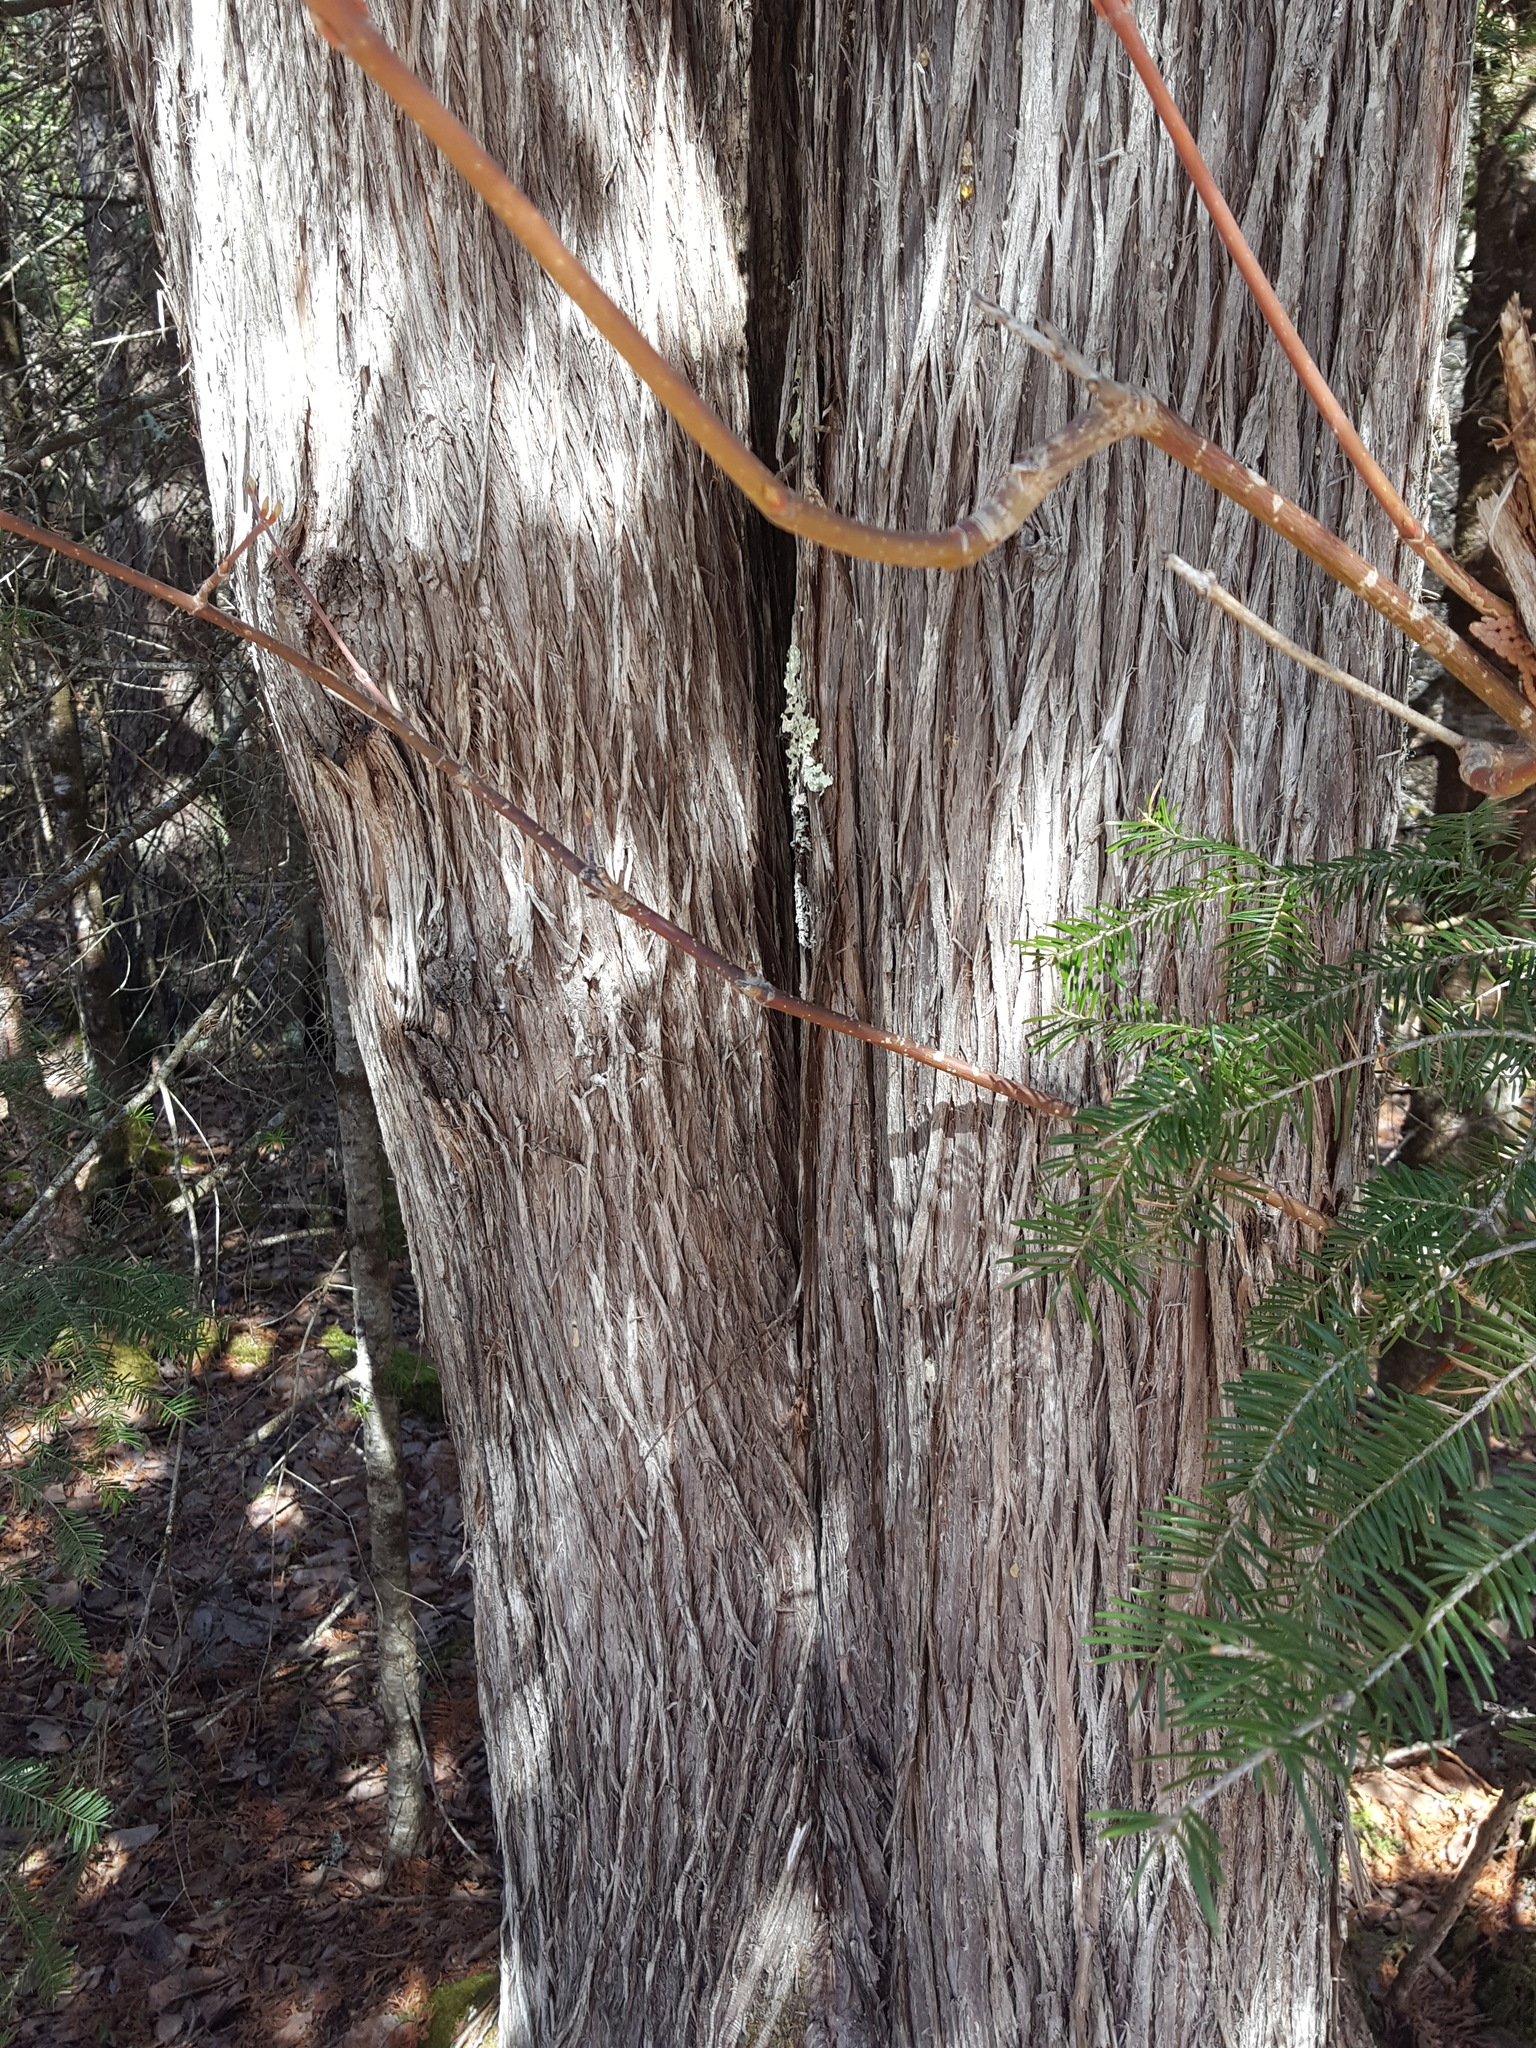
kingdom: Plantae
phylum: Tracheophyta
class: Pinopsida
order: Pinales
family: Cupressaceae
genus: Thuja
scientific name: Thuja occidentalis
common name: Northern white-cedar
